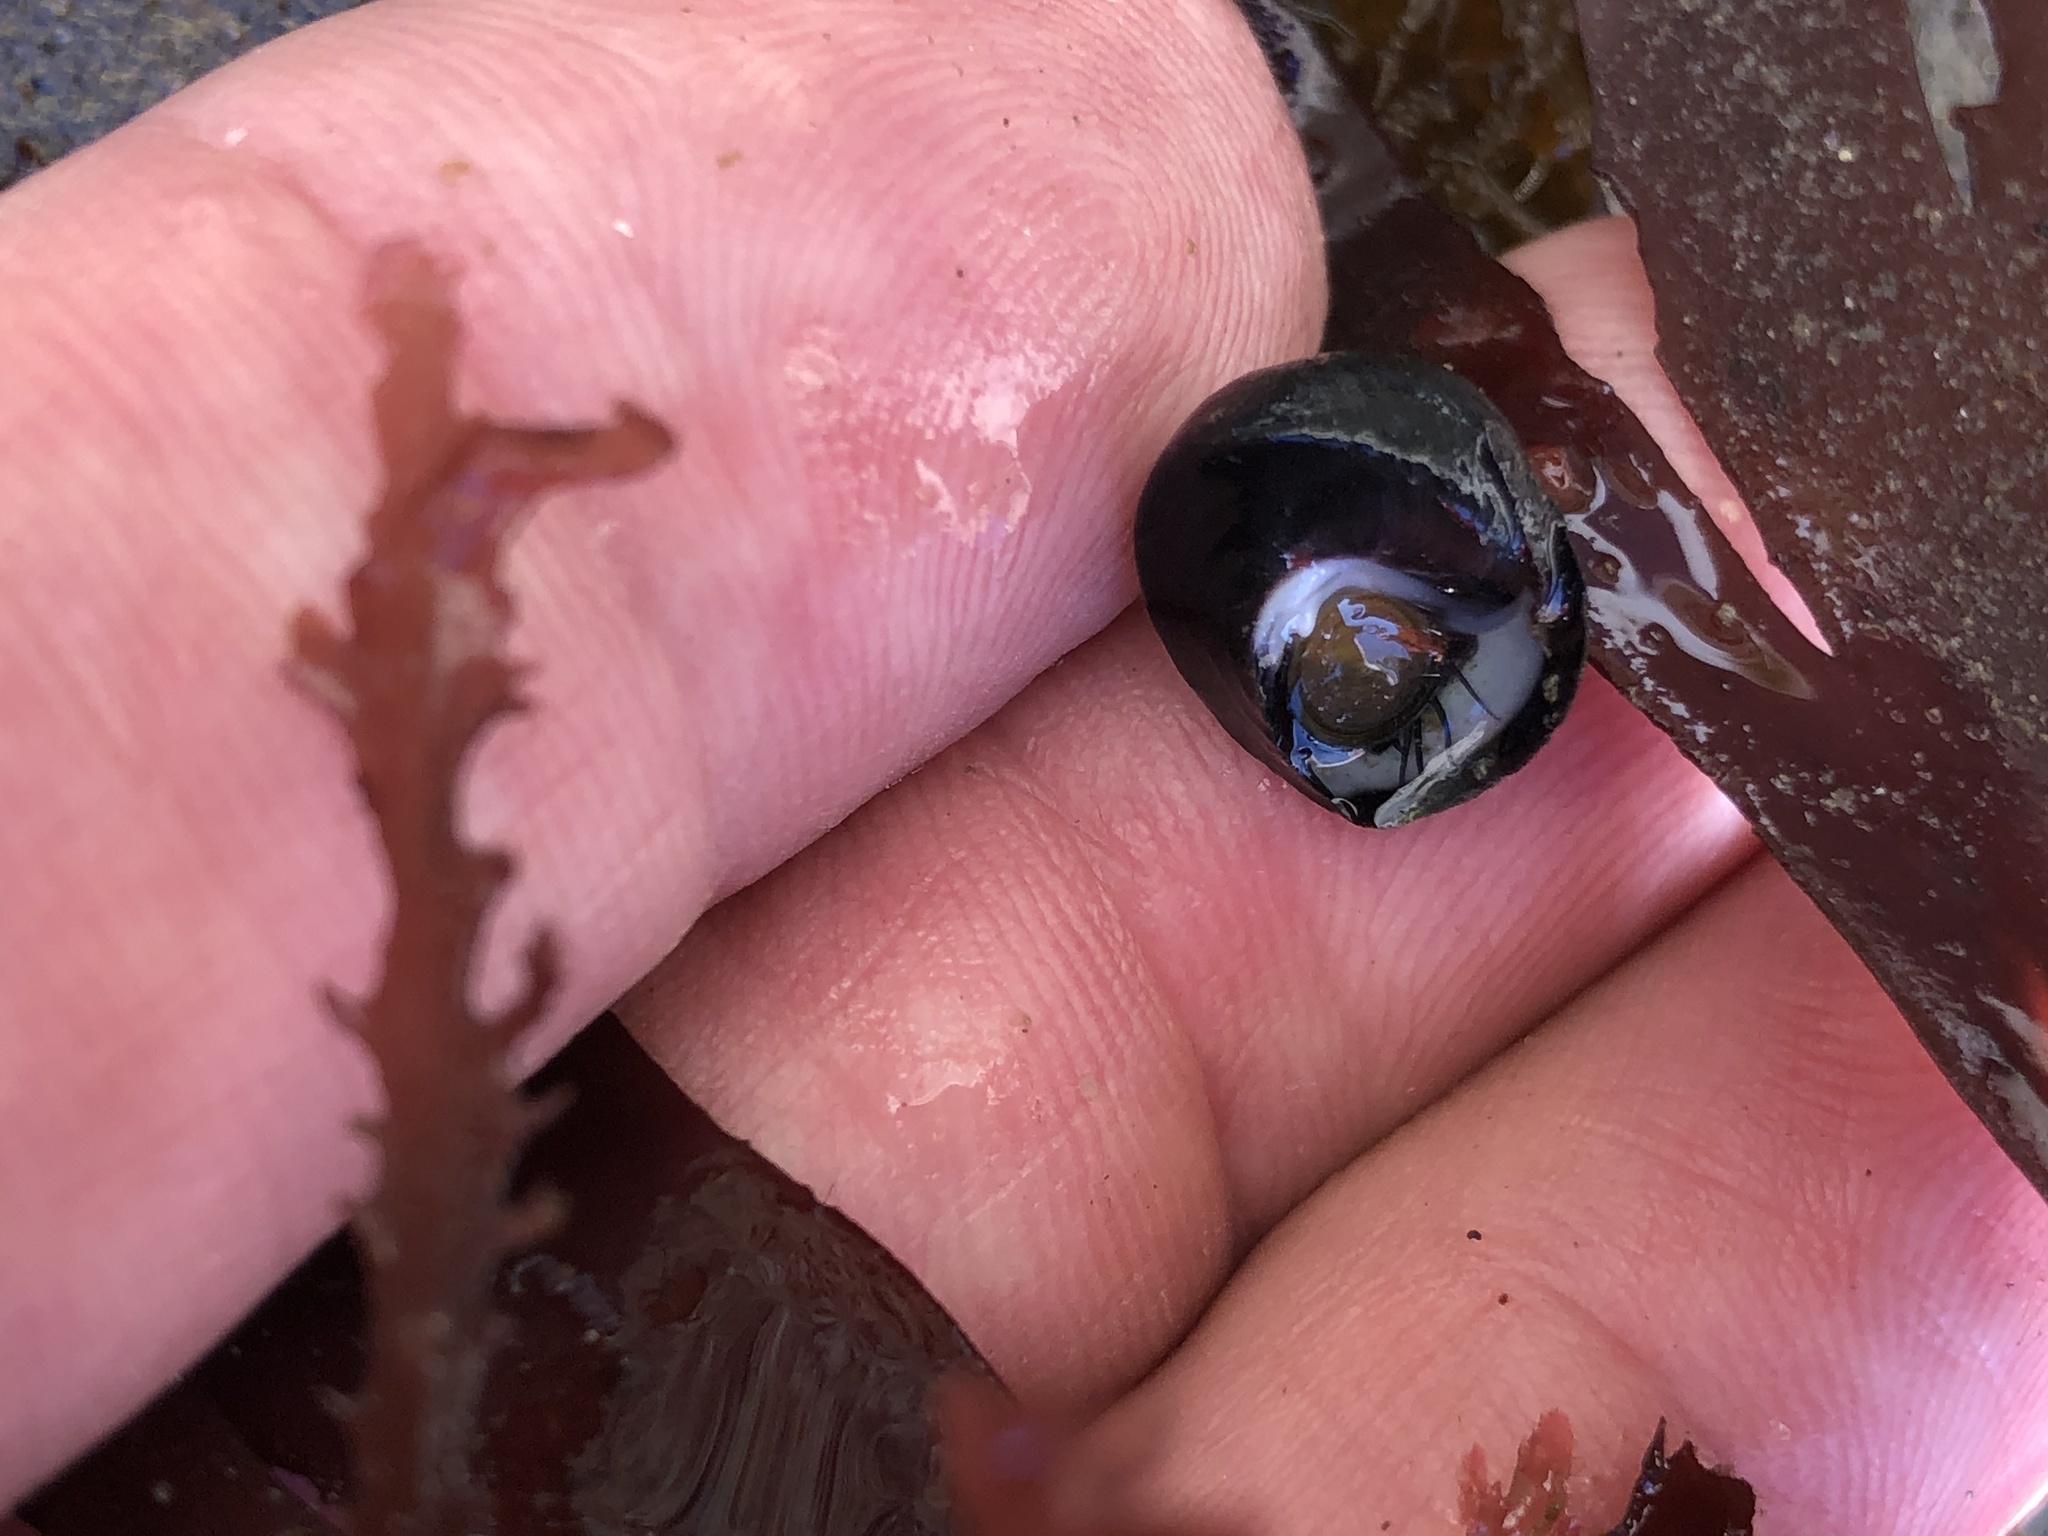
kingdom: Animalia
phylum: Mollusca
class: Gastropoda
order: Trochida
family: Tegulidae
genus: Tegula
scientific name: Tegula funebralis
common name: Black tegula
